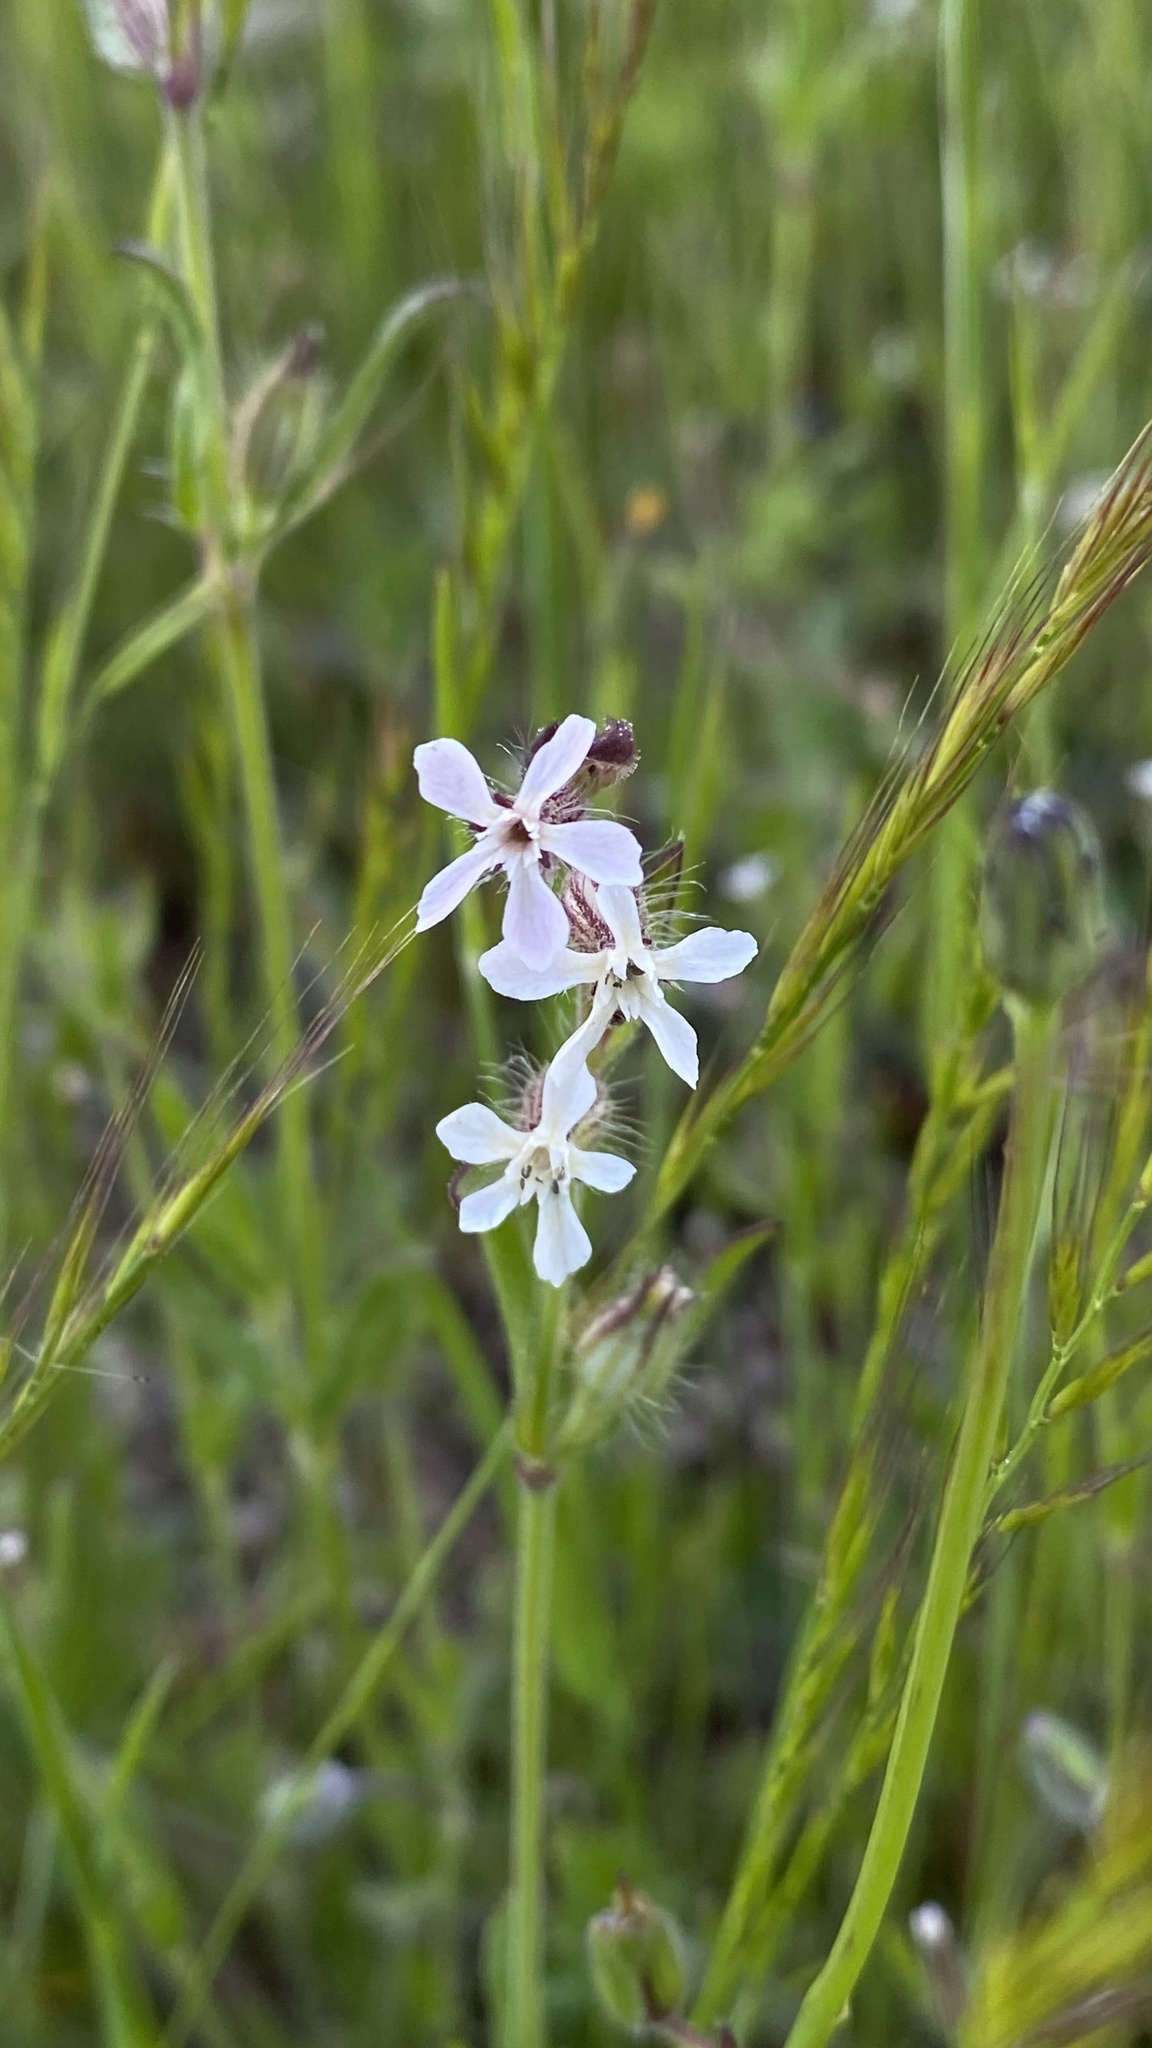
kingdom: Plantae
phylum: Tracheophyta
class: Magnoliopsida
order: Caryophyllales
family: Caryophyllaceae
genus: Silene
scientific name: Silene gallica
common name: Small-flowered catchfly
